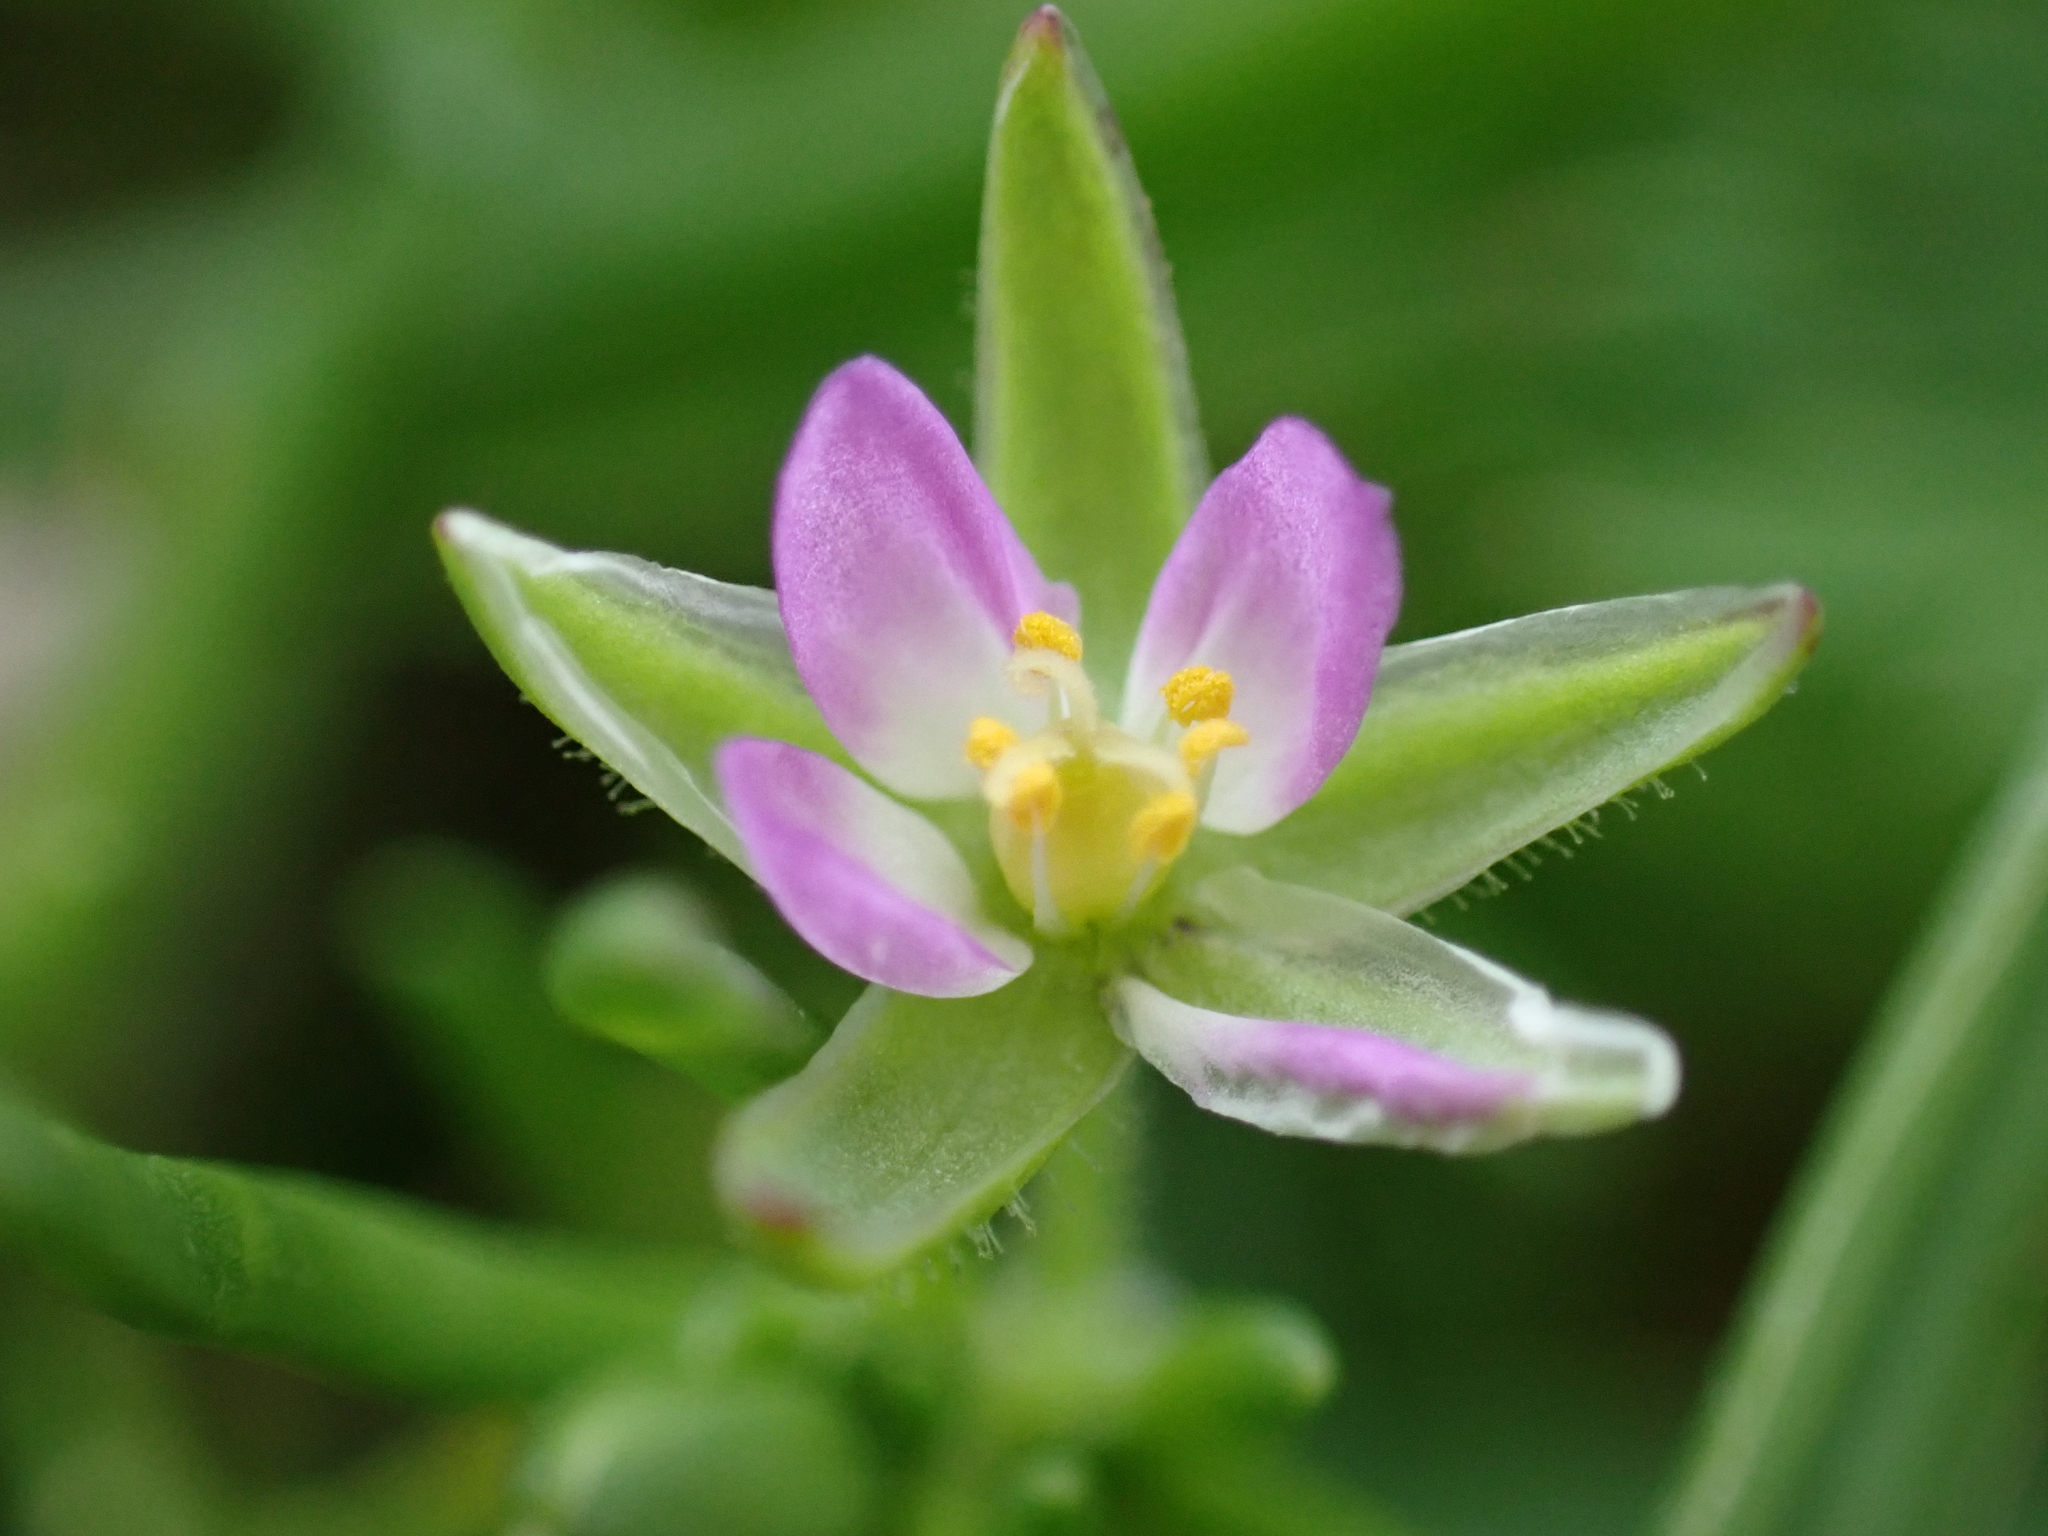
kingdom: Plantae
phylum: Tracheophyta
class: Magnoliopsida
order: Caryophyllales
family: Caryophyllaceae
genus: Spergularia
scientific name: Spergularia rubra
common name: Red sand-spurrey
